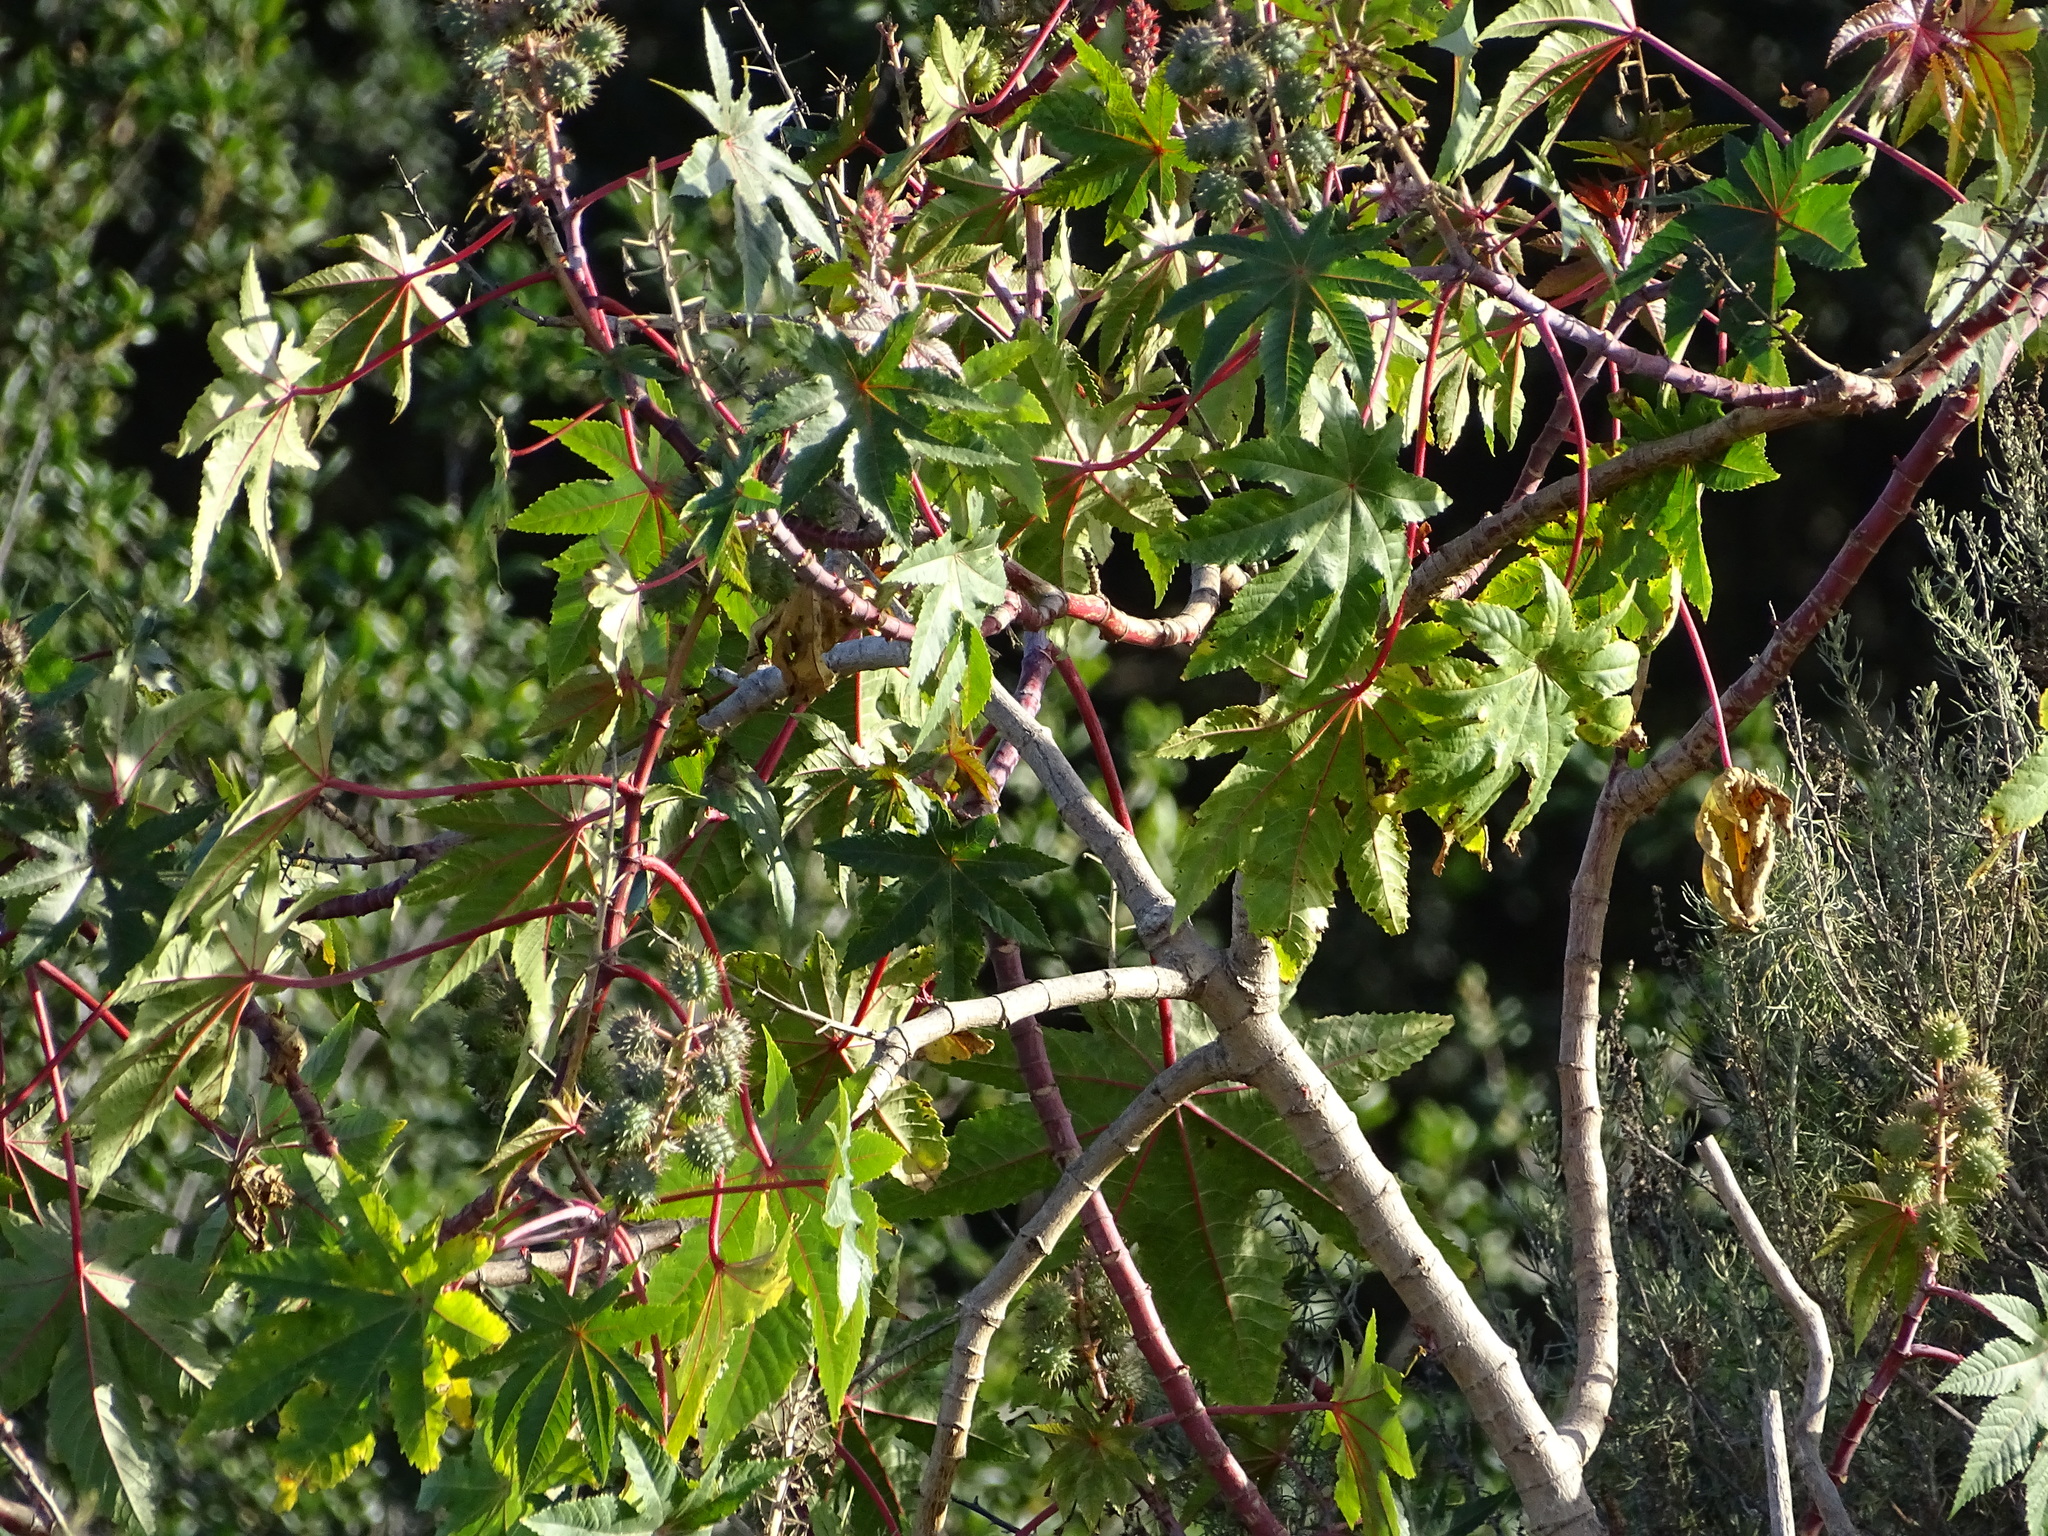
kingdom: Plantae
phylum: Tracheophyta
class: Magnoliopsida
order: Malpighiales
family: Euphorbiaceae
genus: Ricinus
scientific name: Ricinus communis
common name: Castor-oil-plant
